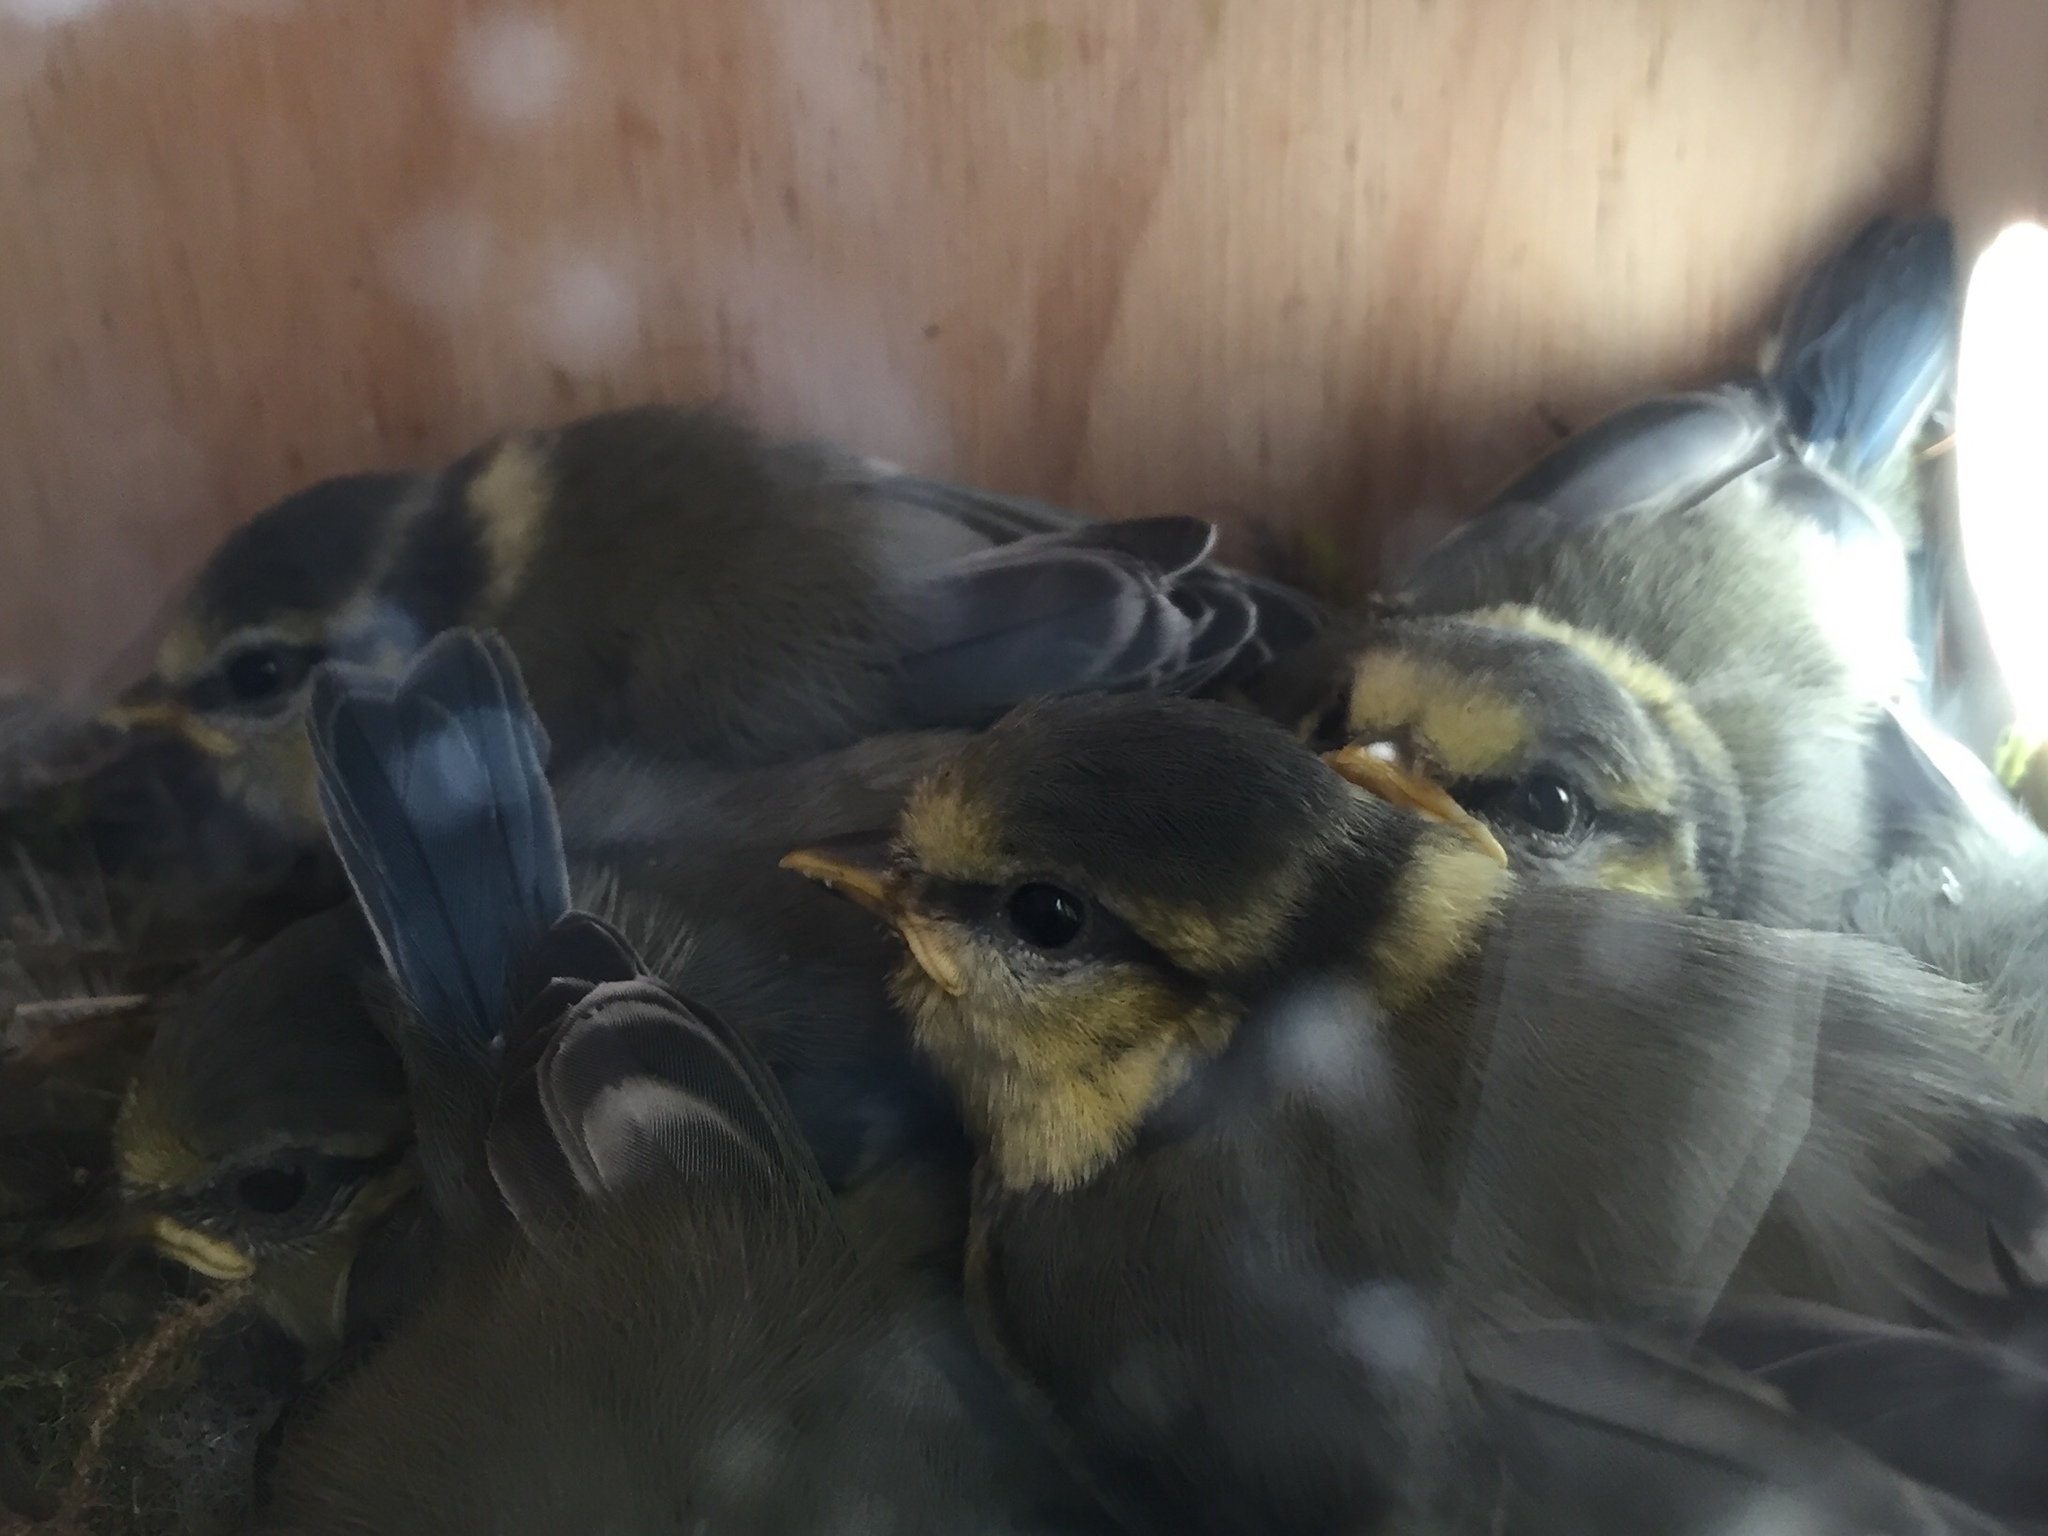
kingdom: Animalia
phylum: Chordata
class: Aves
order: Passeriformes
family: Paridae
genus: Cyanistes
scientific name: Cyanistes caeruleus
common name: Eurasian blue tit
